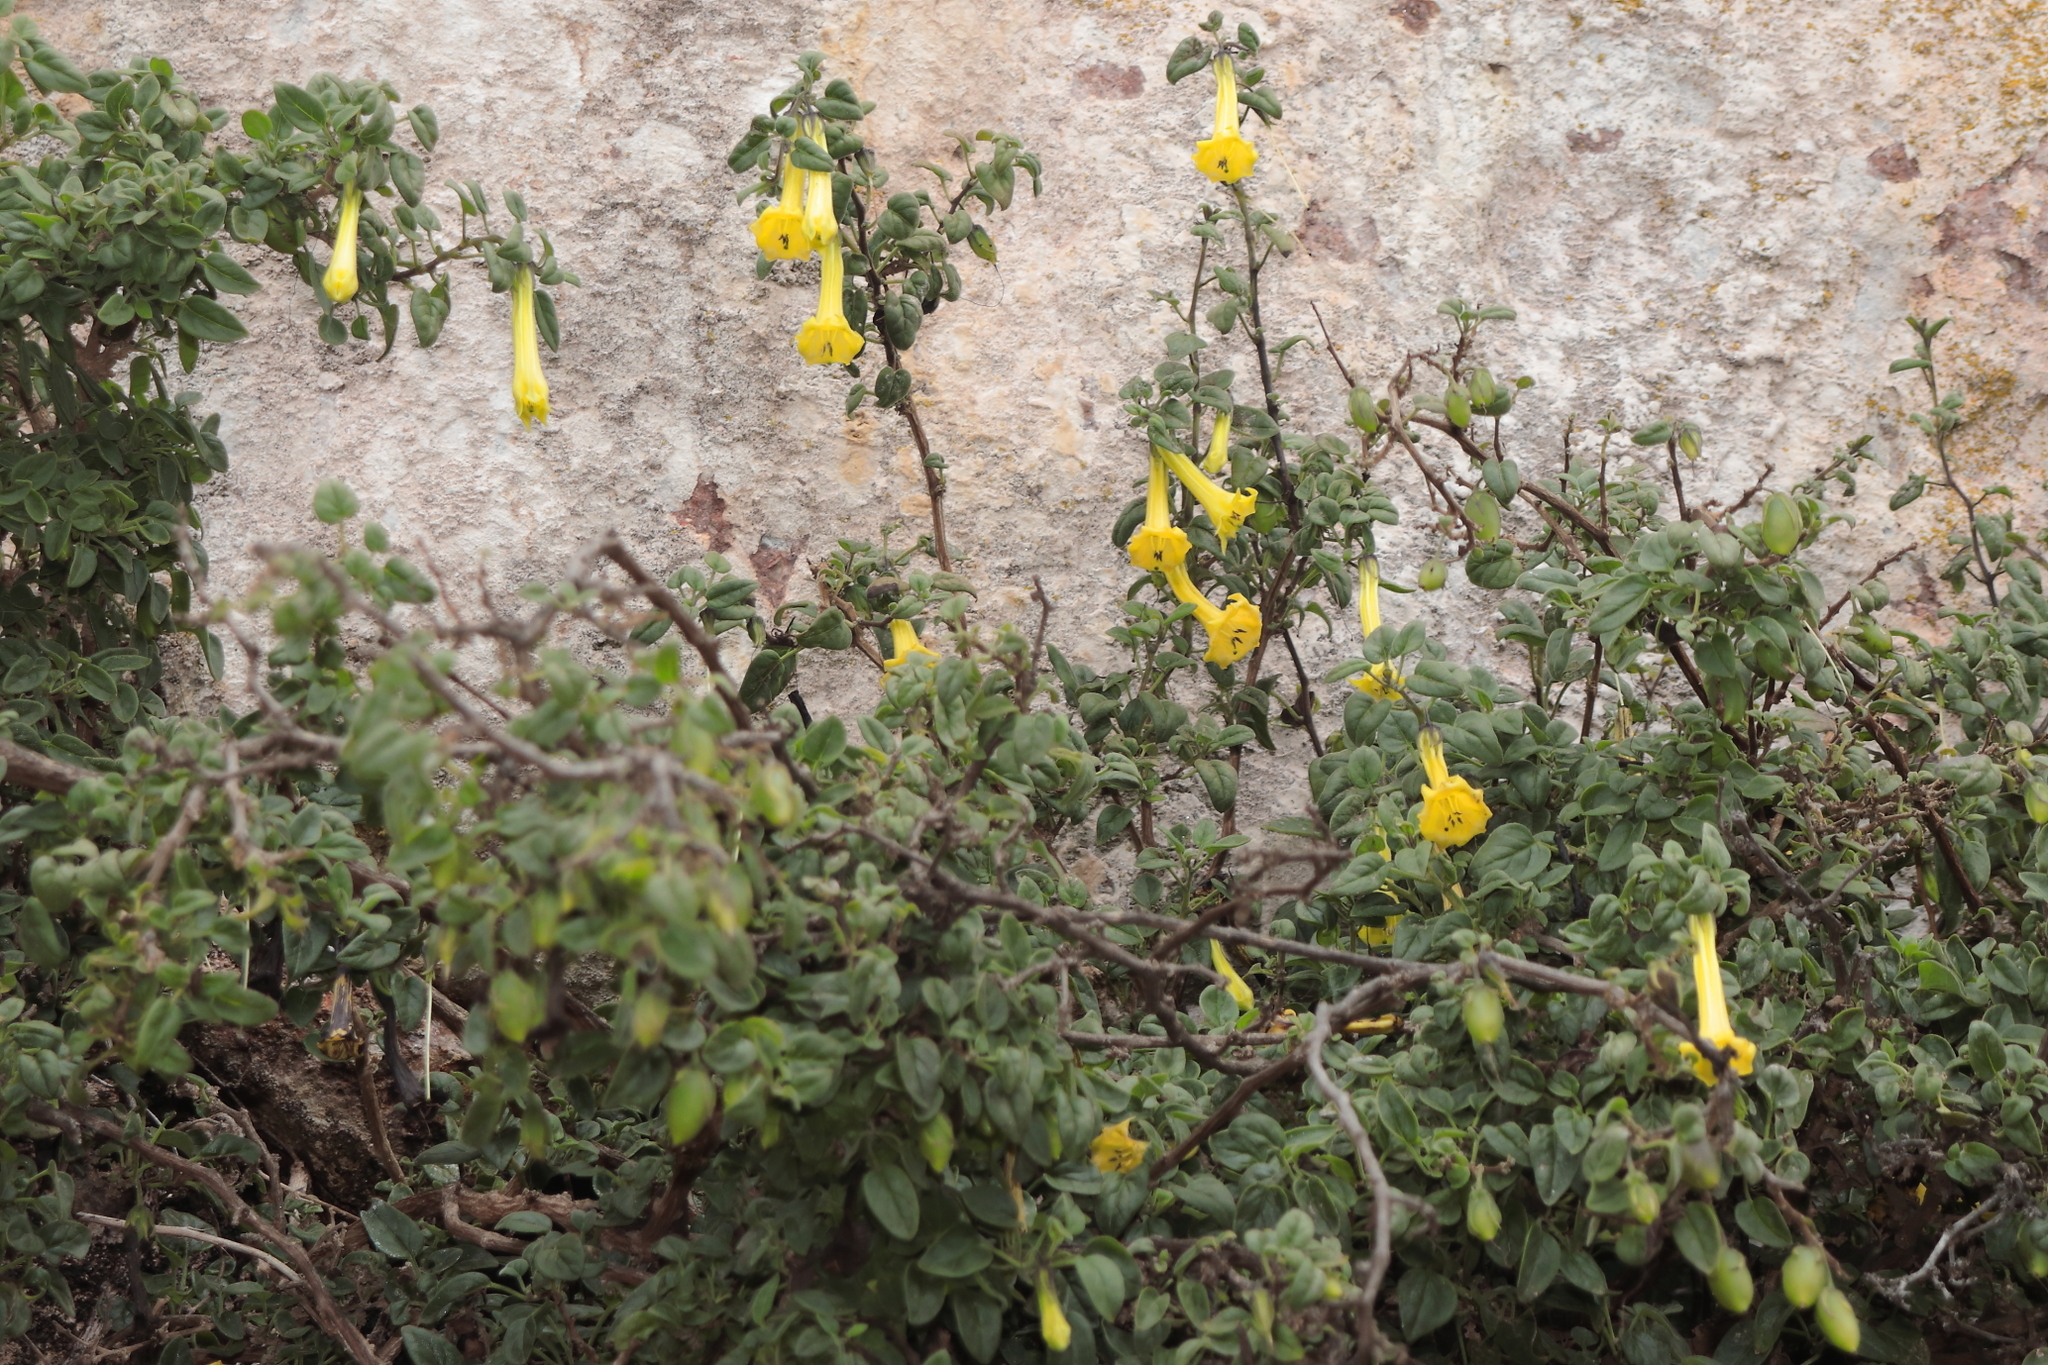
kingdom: Plantae
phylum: Tracheophyta
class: Magnoliopsida
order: Solanales
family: Solanaceae
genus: Salpichroa
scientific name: Salpichroa glandulosa
